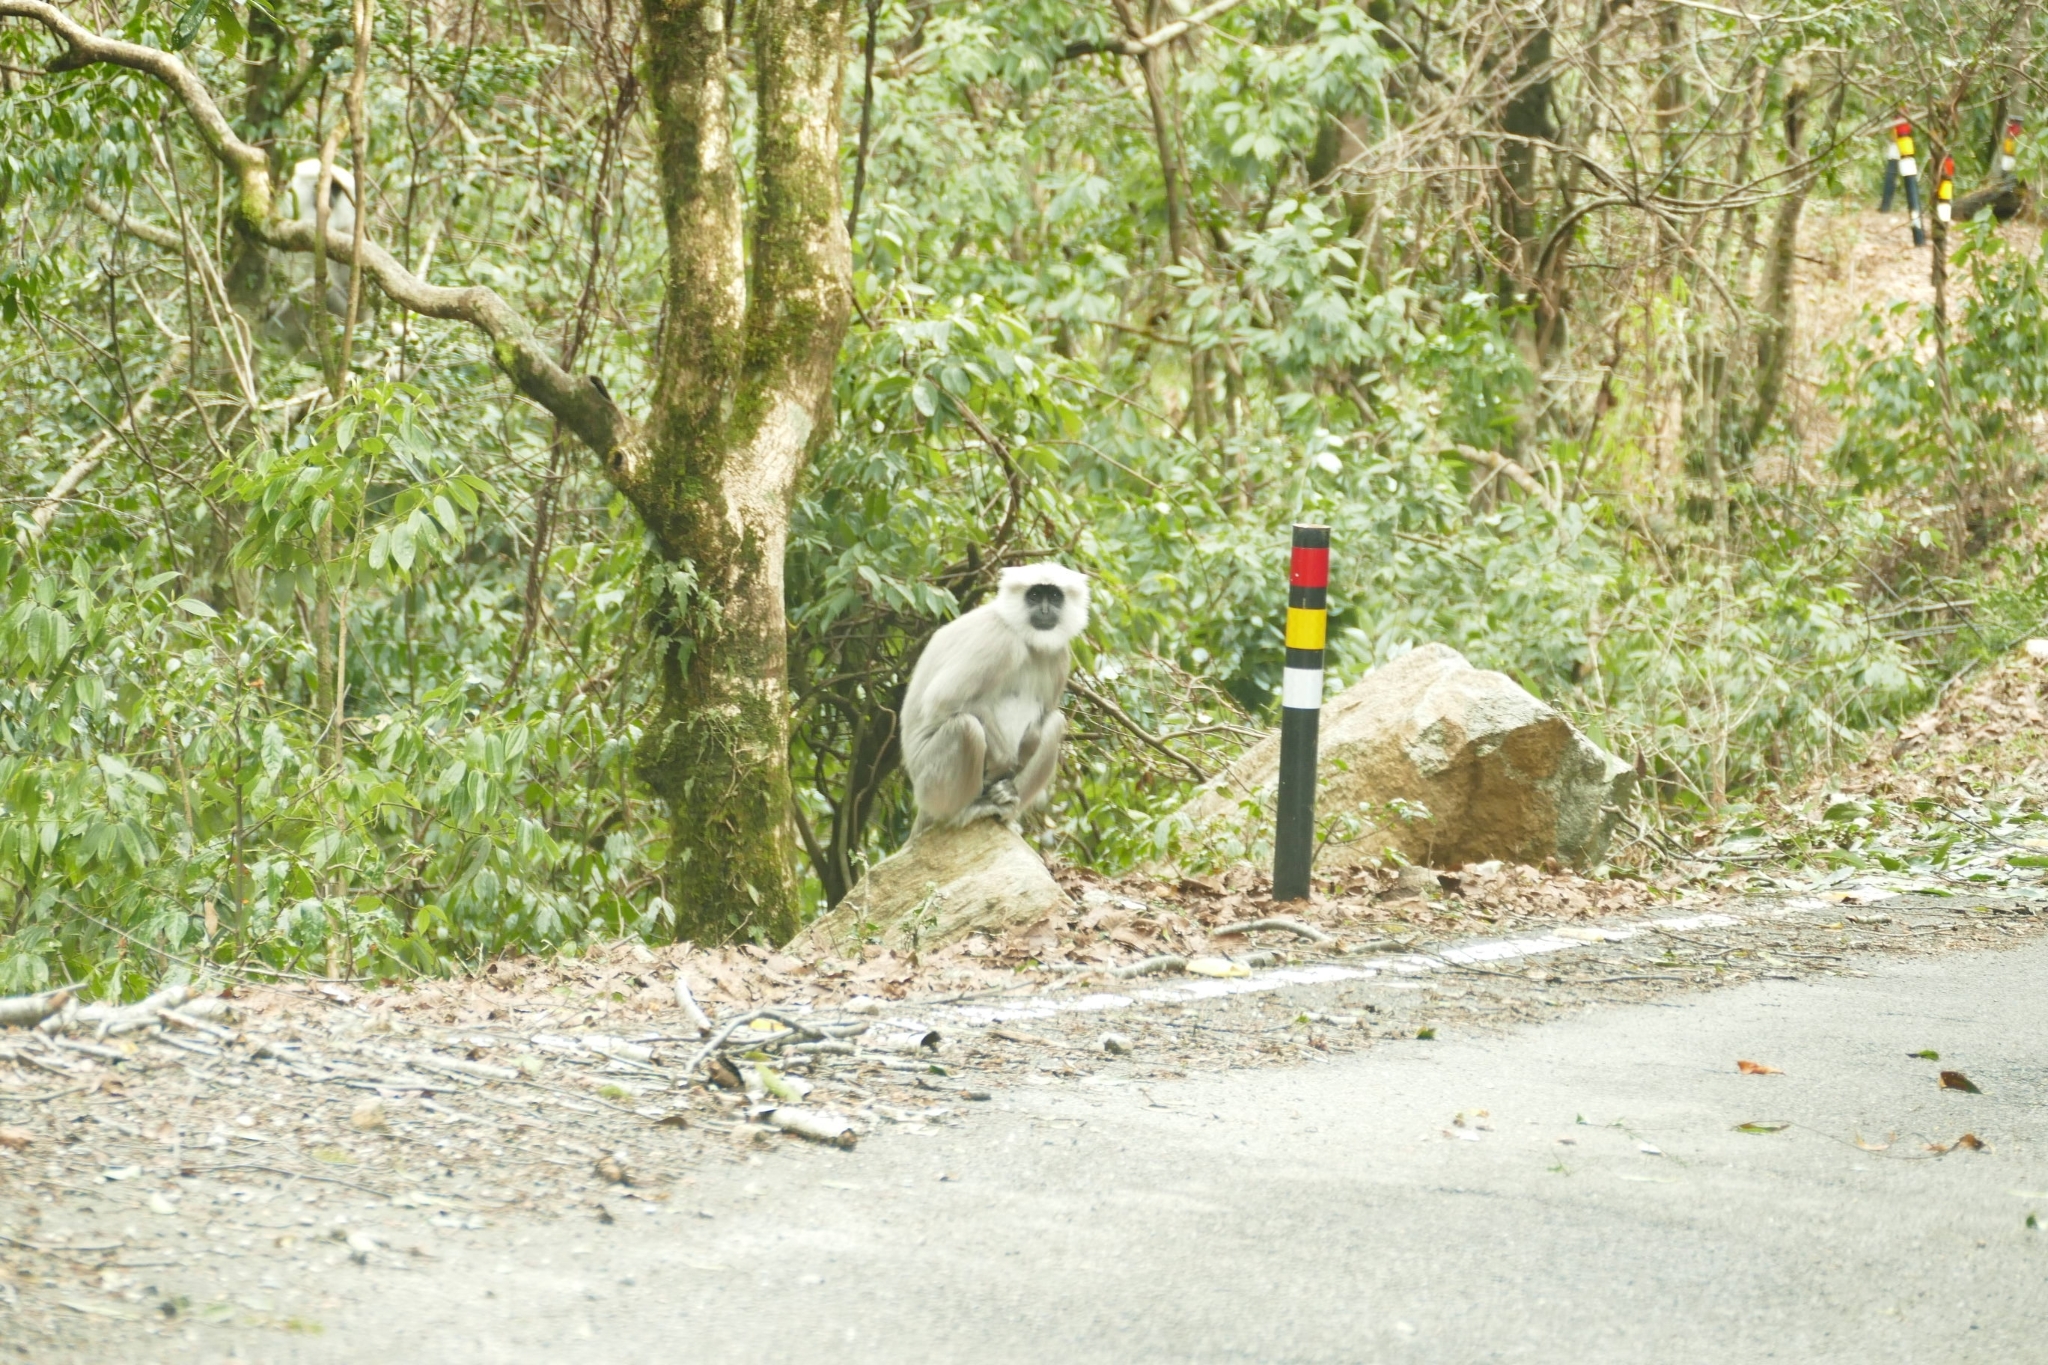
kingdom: Animalia
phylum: Chordata
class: Mammalia
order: Primates
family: Cercopithecidae
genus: Semnopithecus
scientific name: Semnopithecus schistaceus
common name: Nepal gray langur
